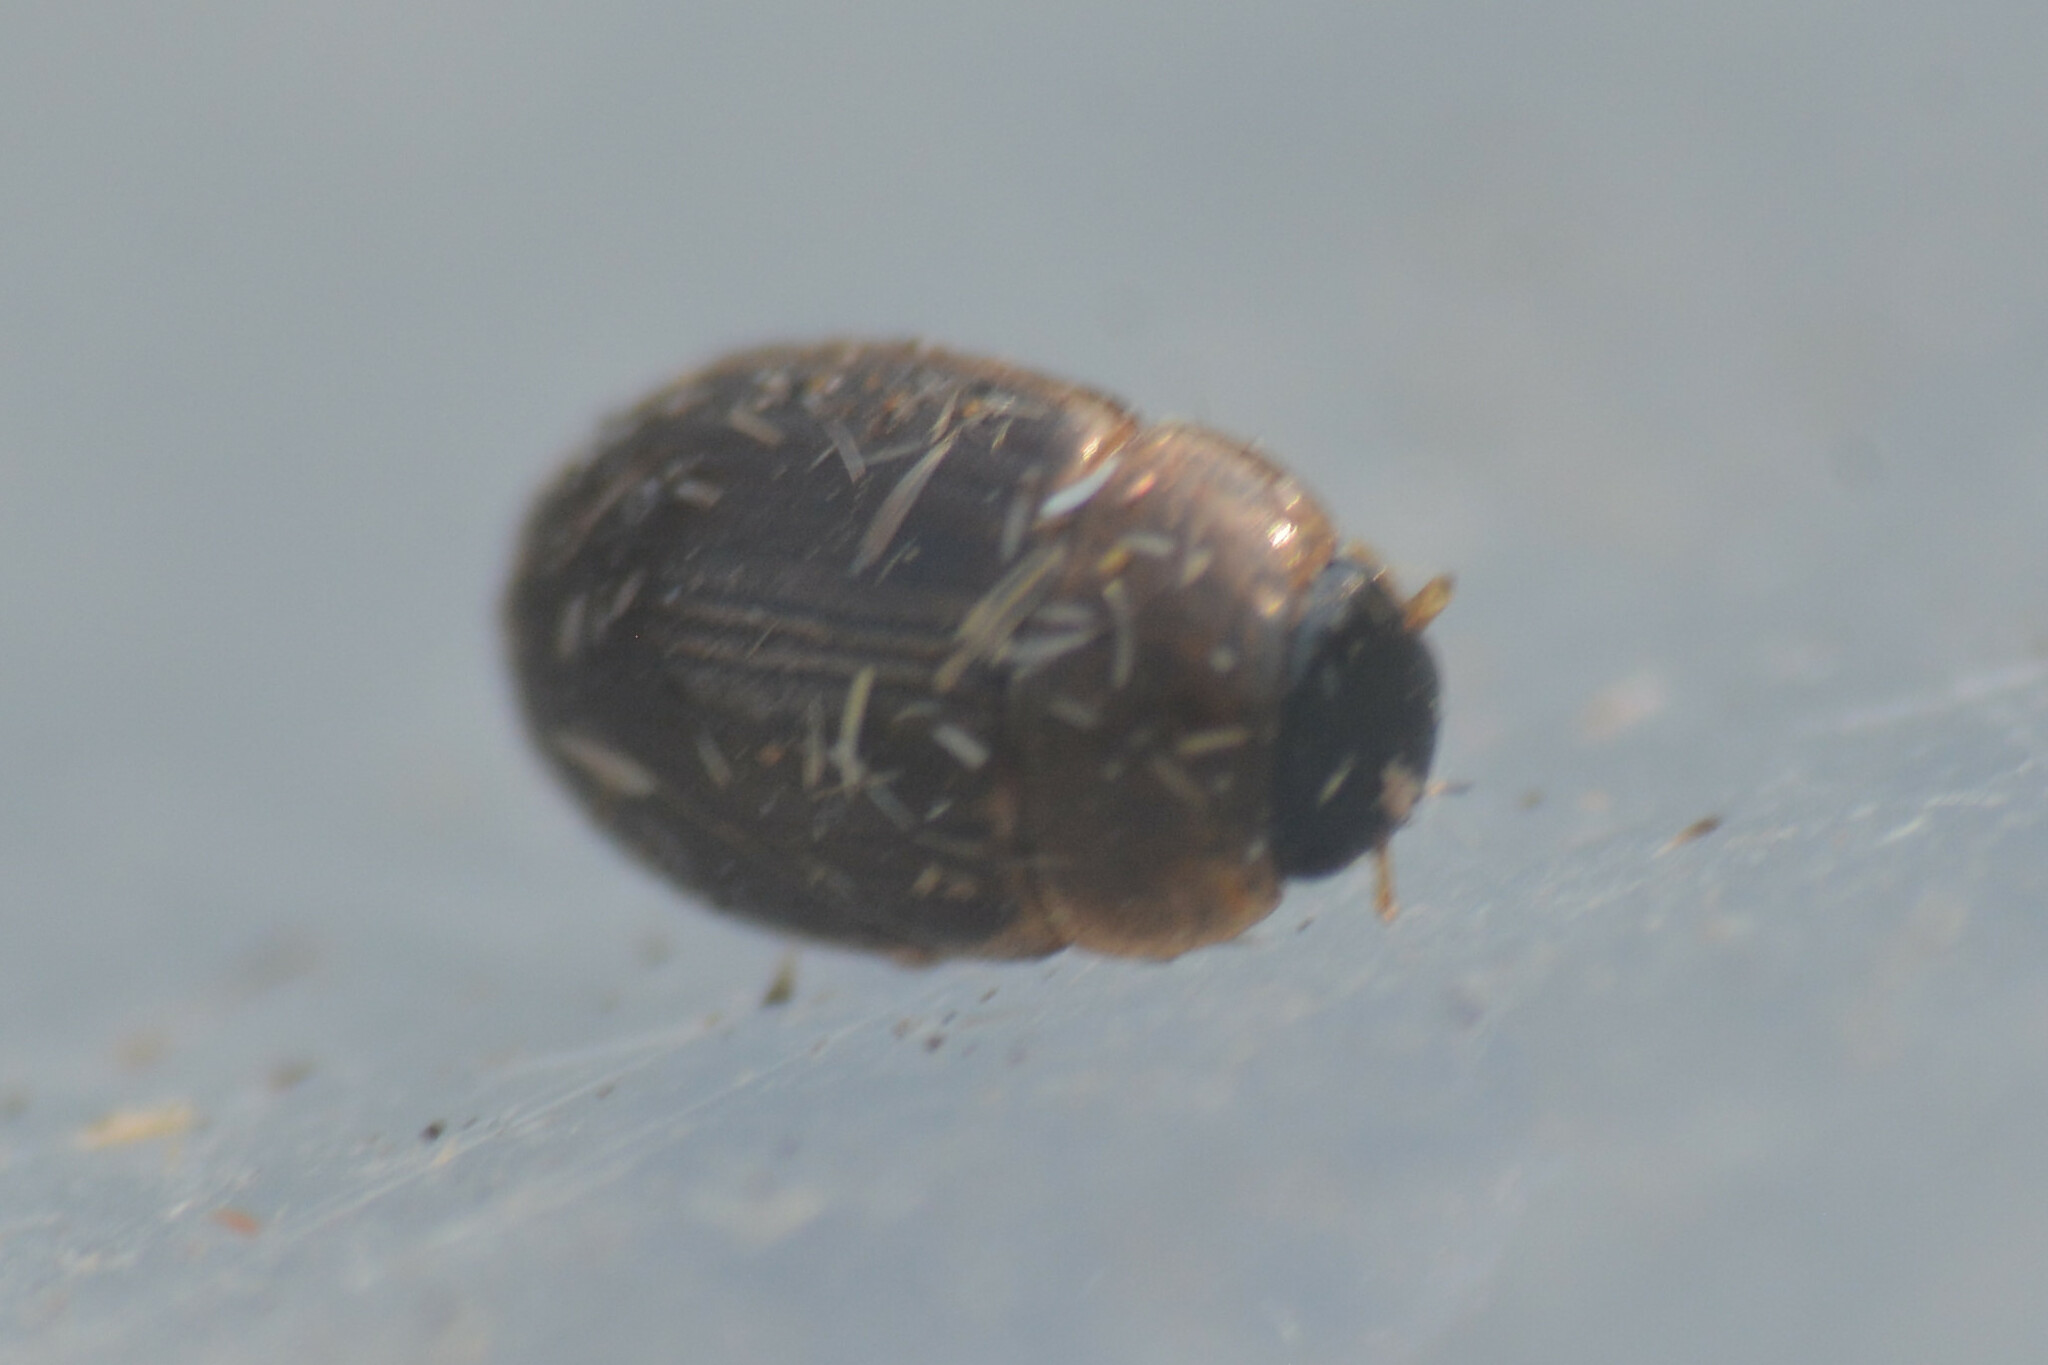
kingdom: Animalia
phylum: Arthropoda
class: Insecta
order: Coleoptera
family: Hydrophilidae
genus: Cercyon
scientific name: Cercyon laminatus
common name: Water scavenger beetle
